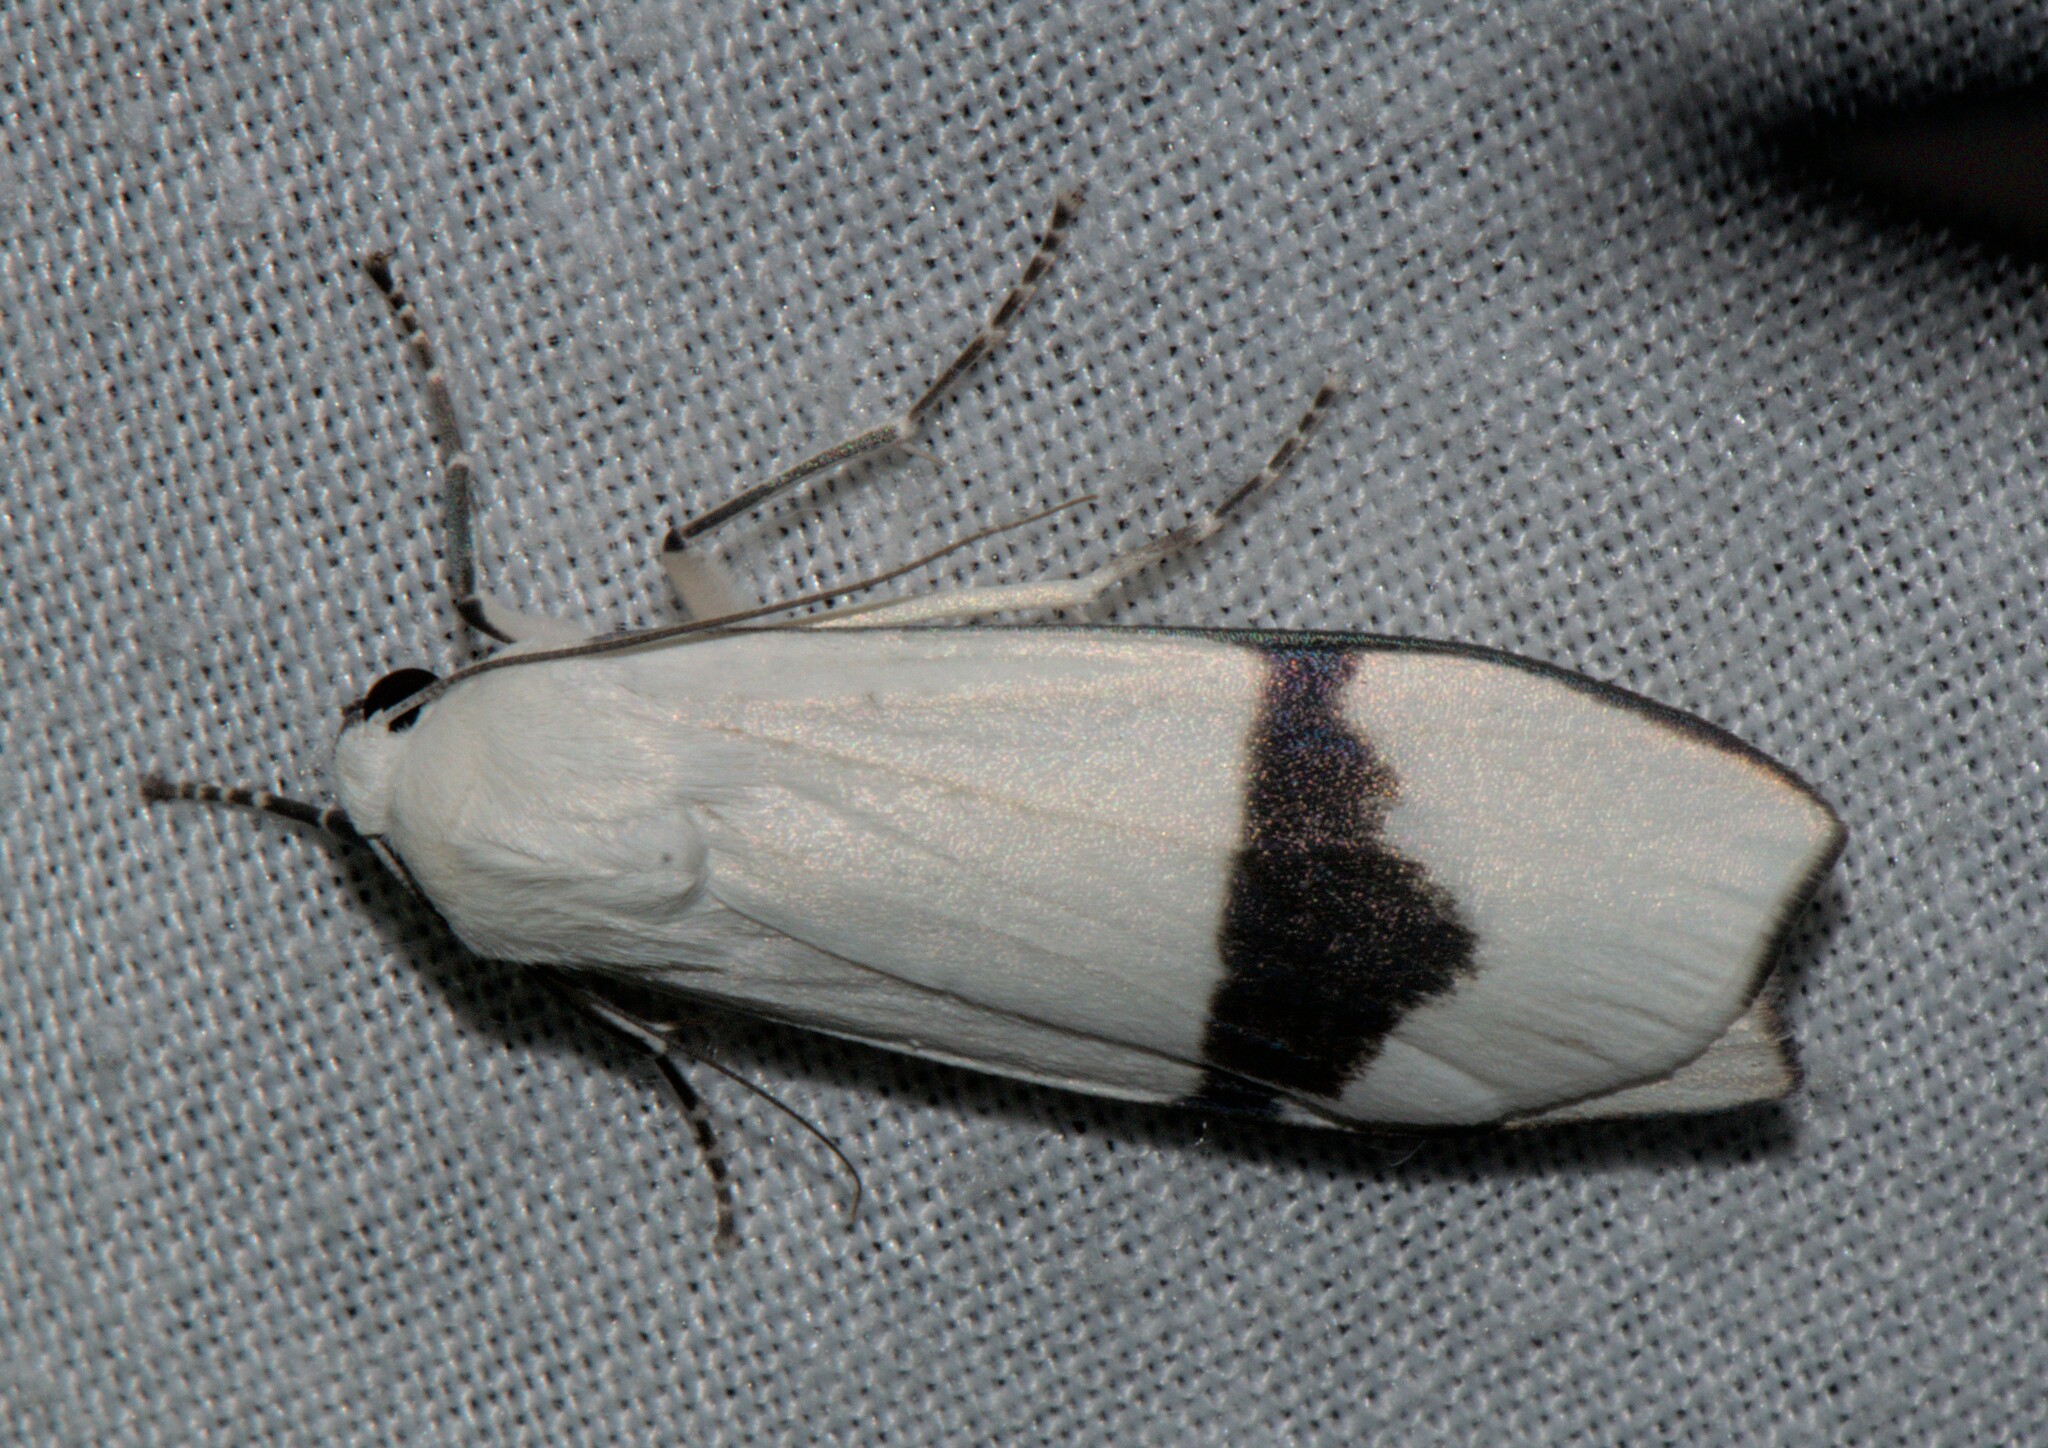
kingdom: Animalia
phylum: Arthropoda
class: Insecta
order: Lepidoptera
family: Erebidae
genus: Vamuna
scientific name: Vamuna remelana
